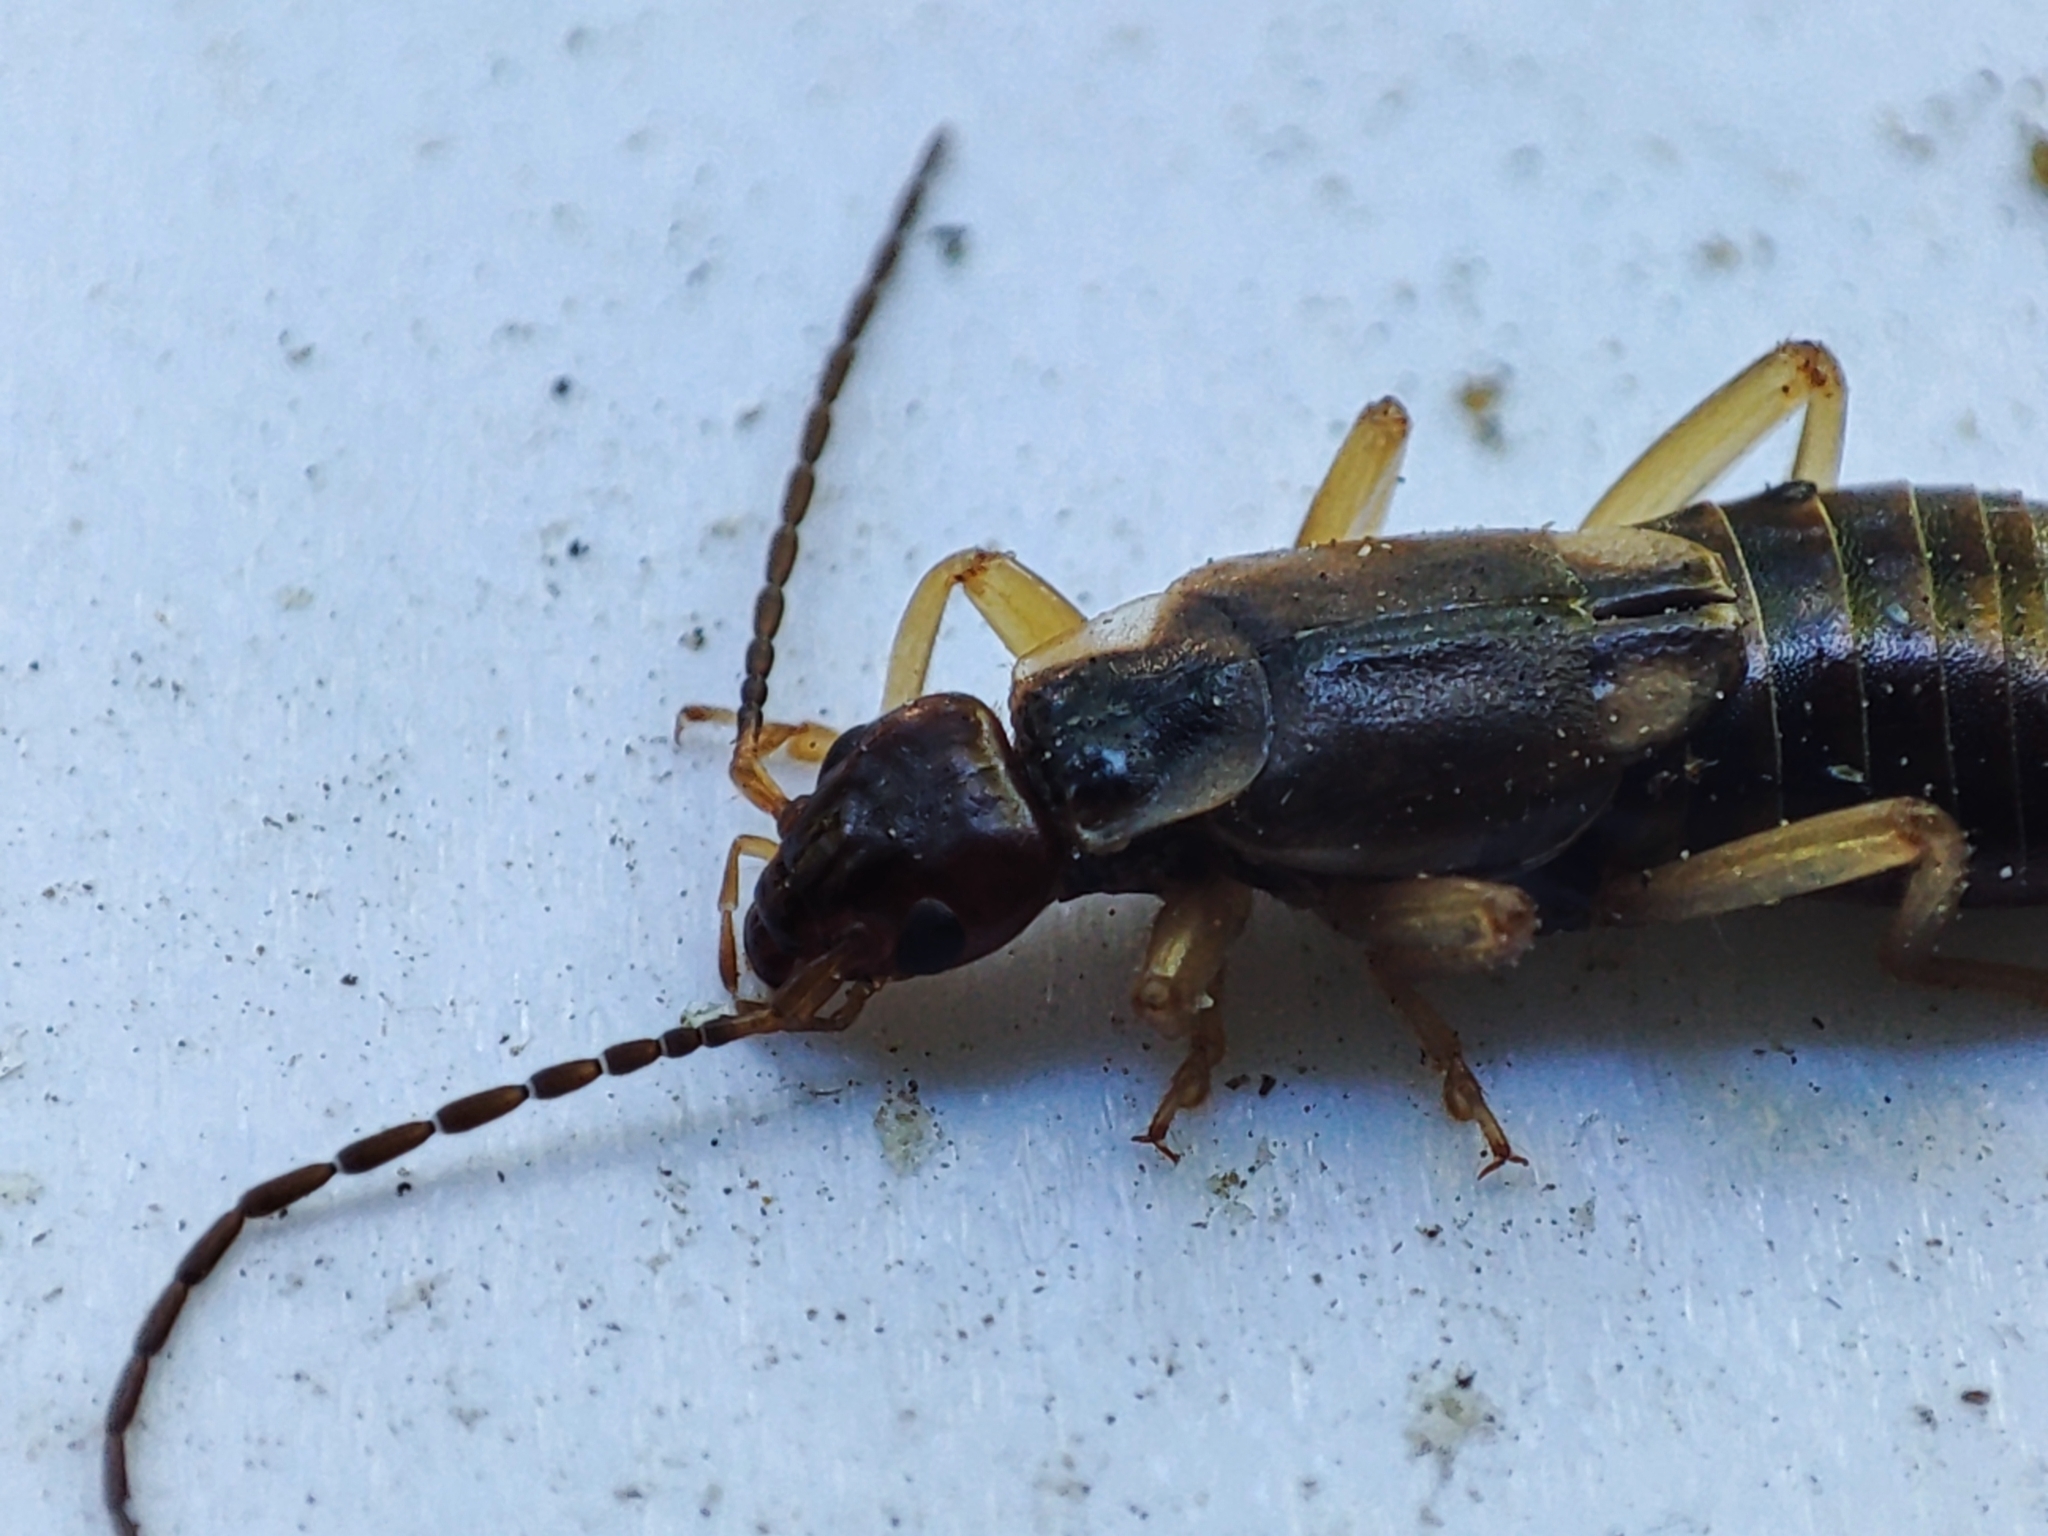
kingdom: Animalia
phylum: Arthropoda
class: Insecta
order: Dermaptera
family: Forficulidae
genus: Forficula
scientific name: Forficula
